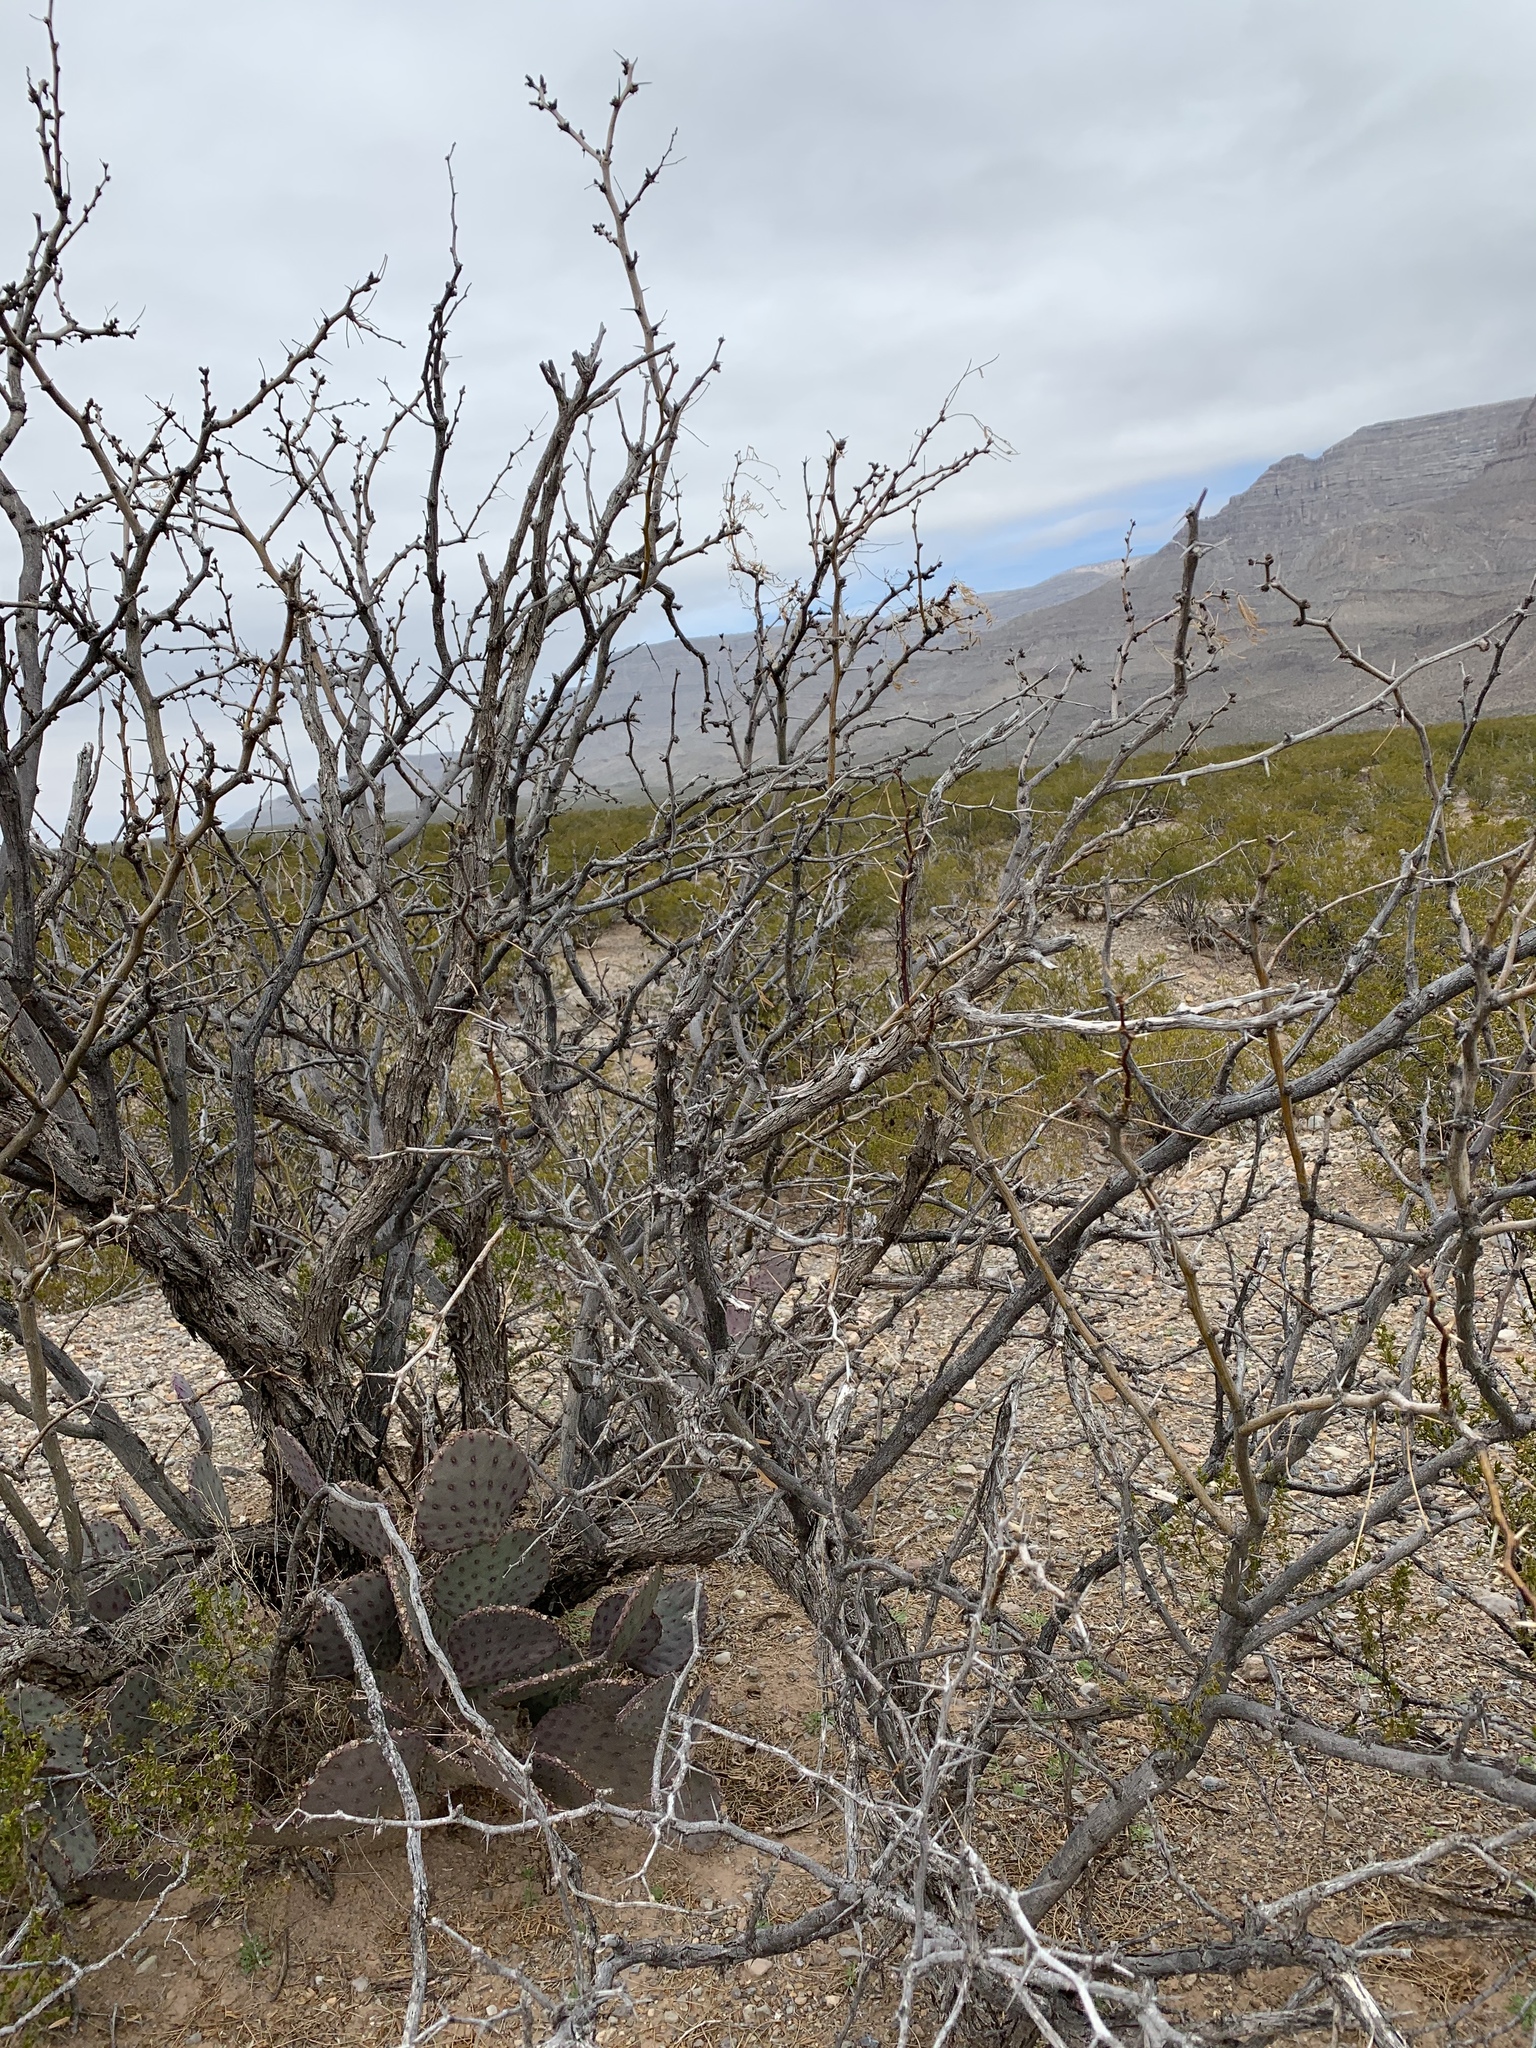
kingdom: Plantae
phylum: Tracheophyta
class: Magnoliopsida
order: Fabales
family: Fabaceae
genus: Prosopis
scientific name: Prosopis glandulosa
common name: Honey mesquite
